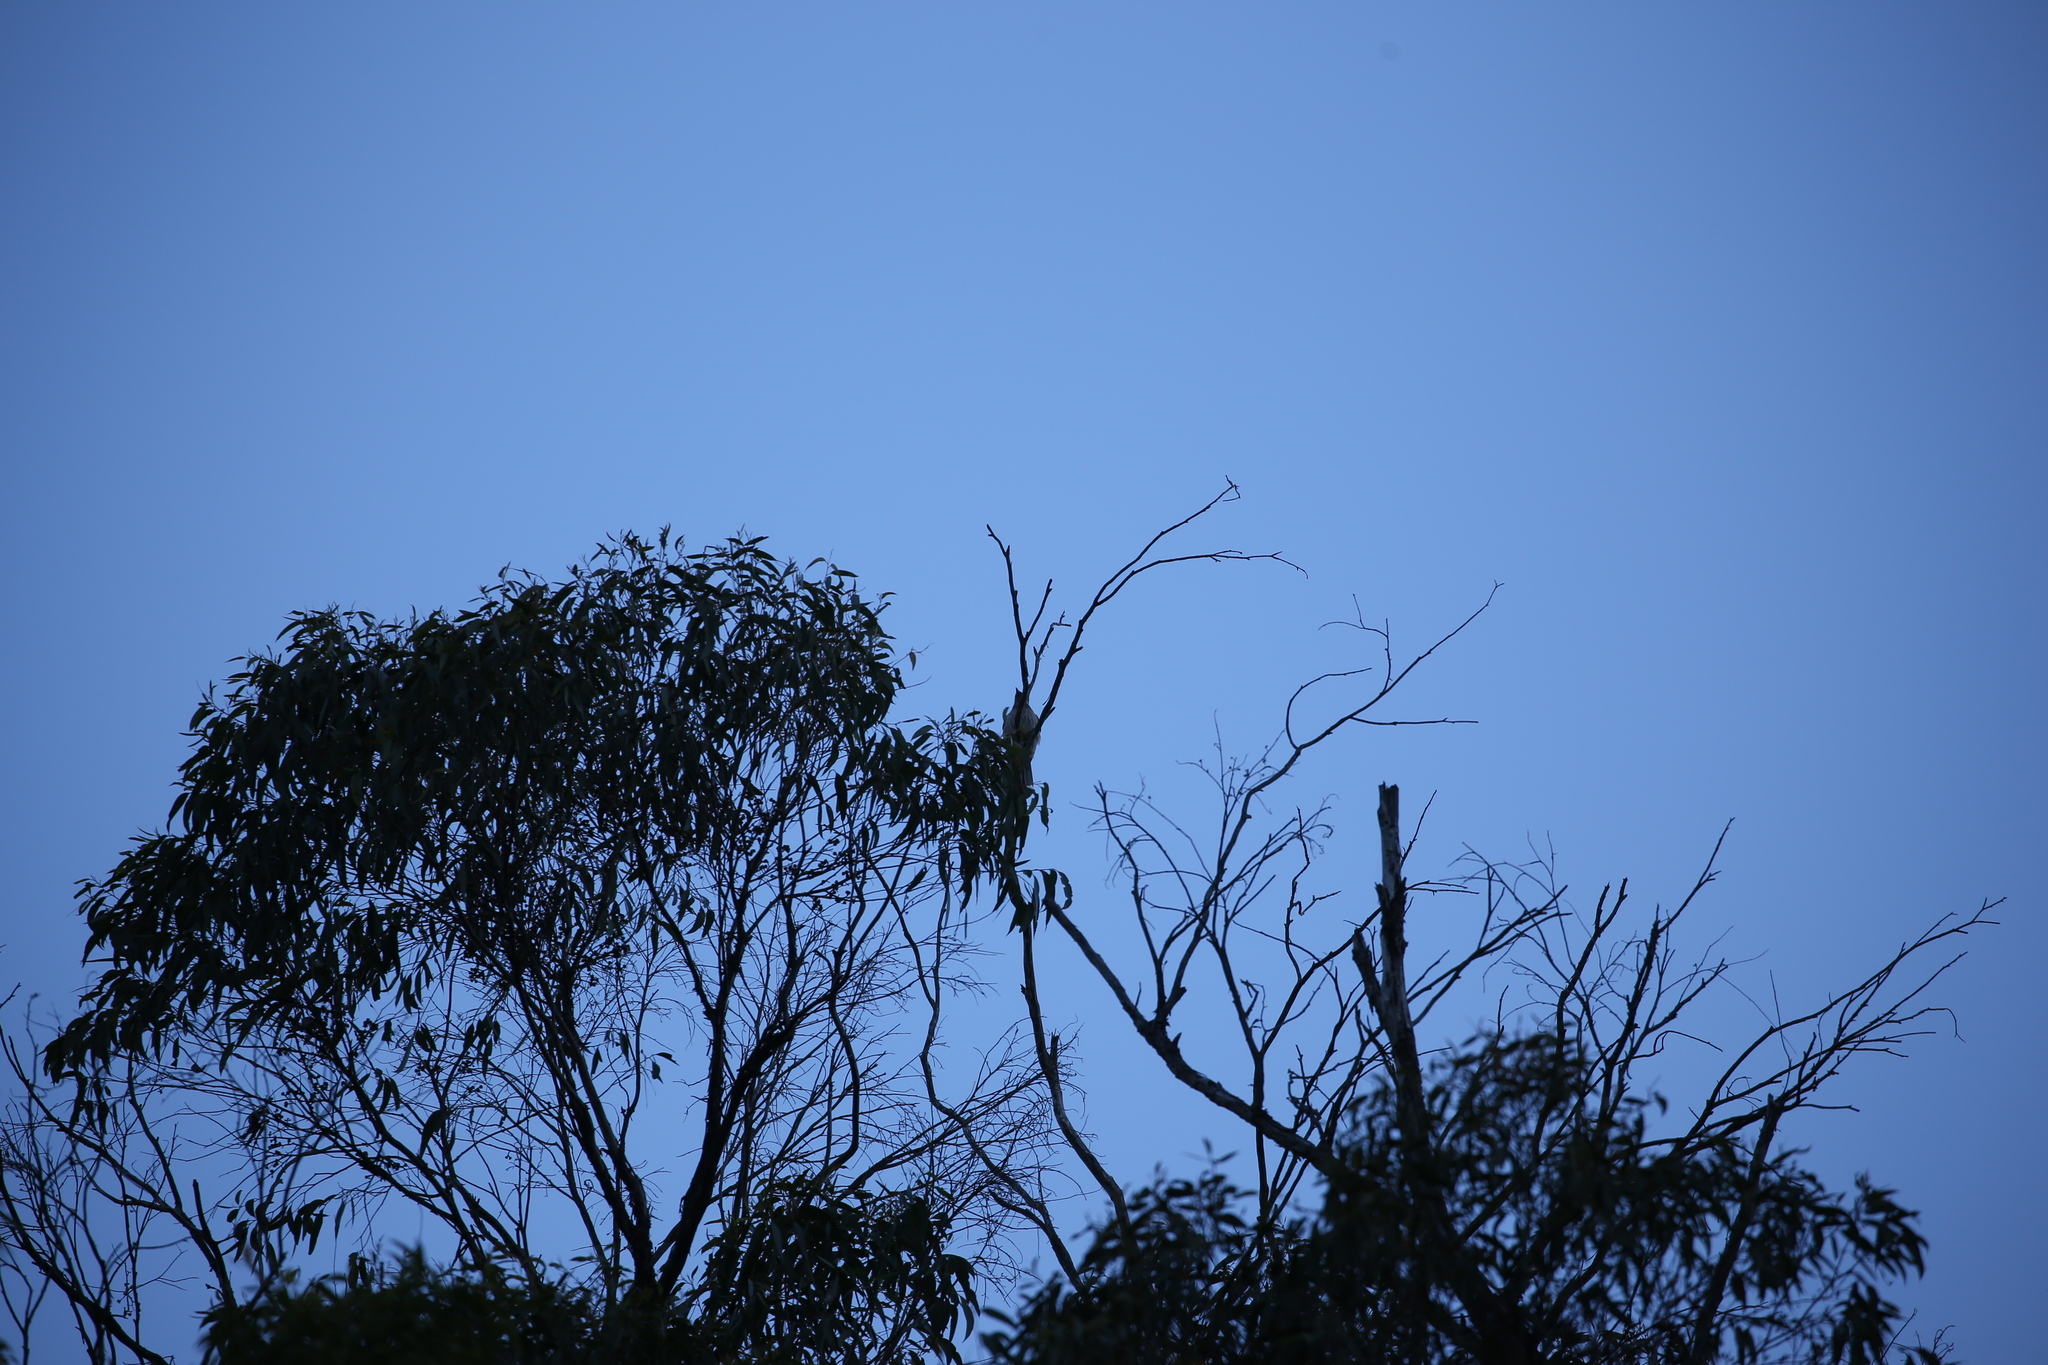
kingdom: Animalia
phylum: Chordata
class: Aves
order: Passeriformes
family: Meliphagidae
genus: Anthochaera
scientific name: Anthochaera carunculata
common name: Red wattlebird
